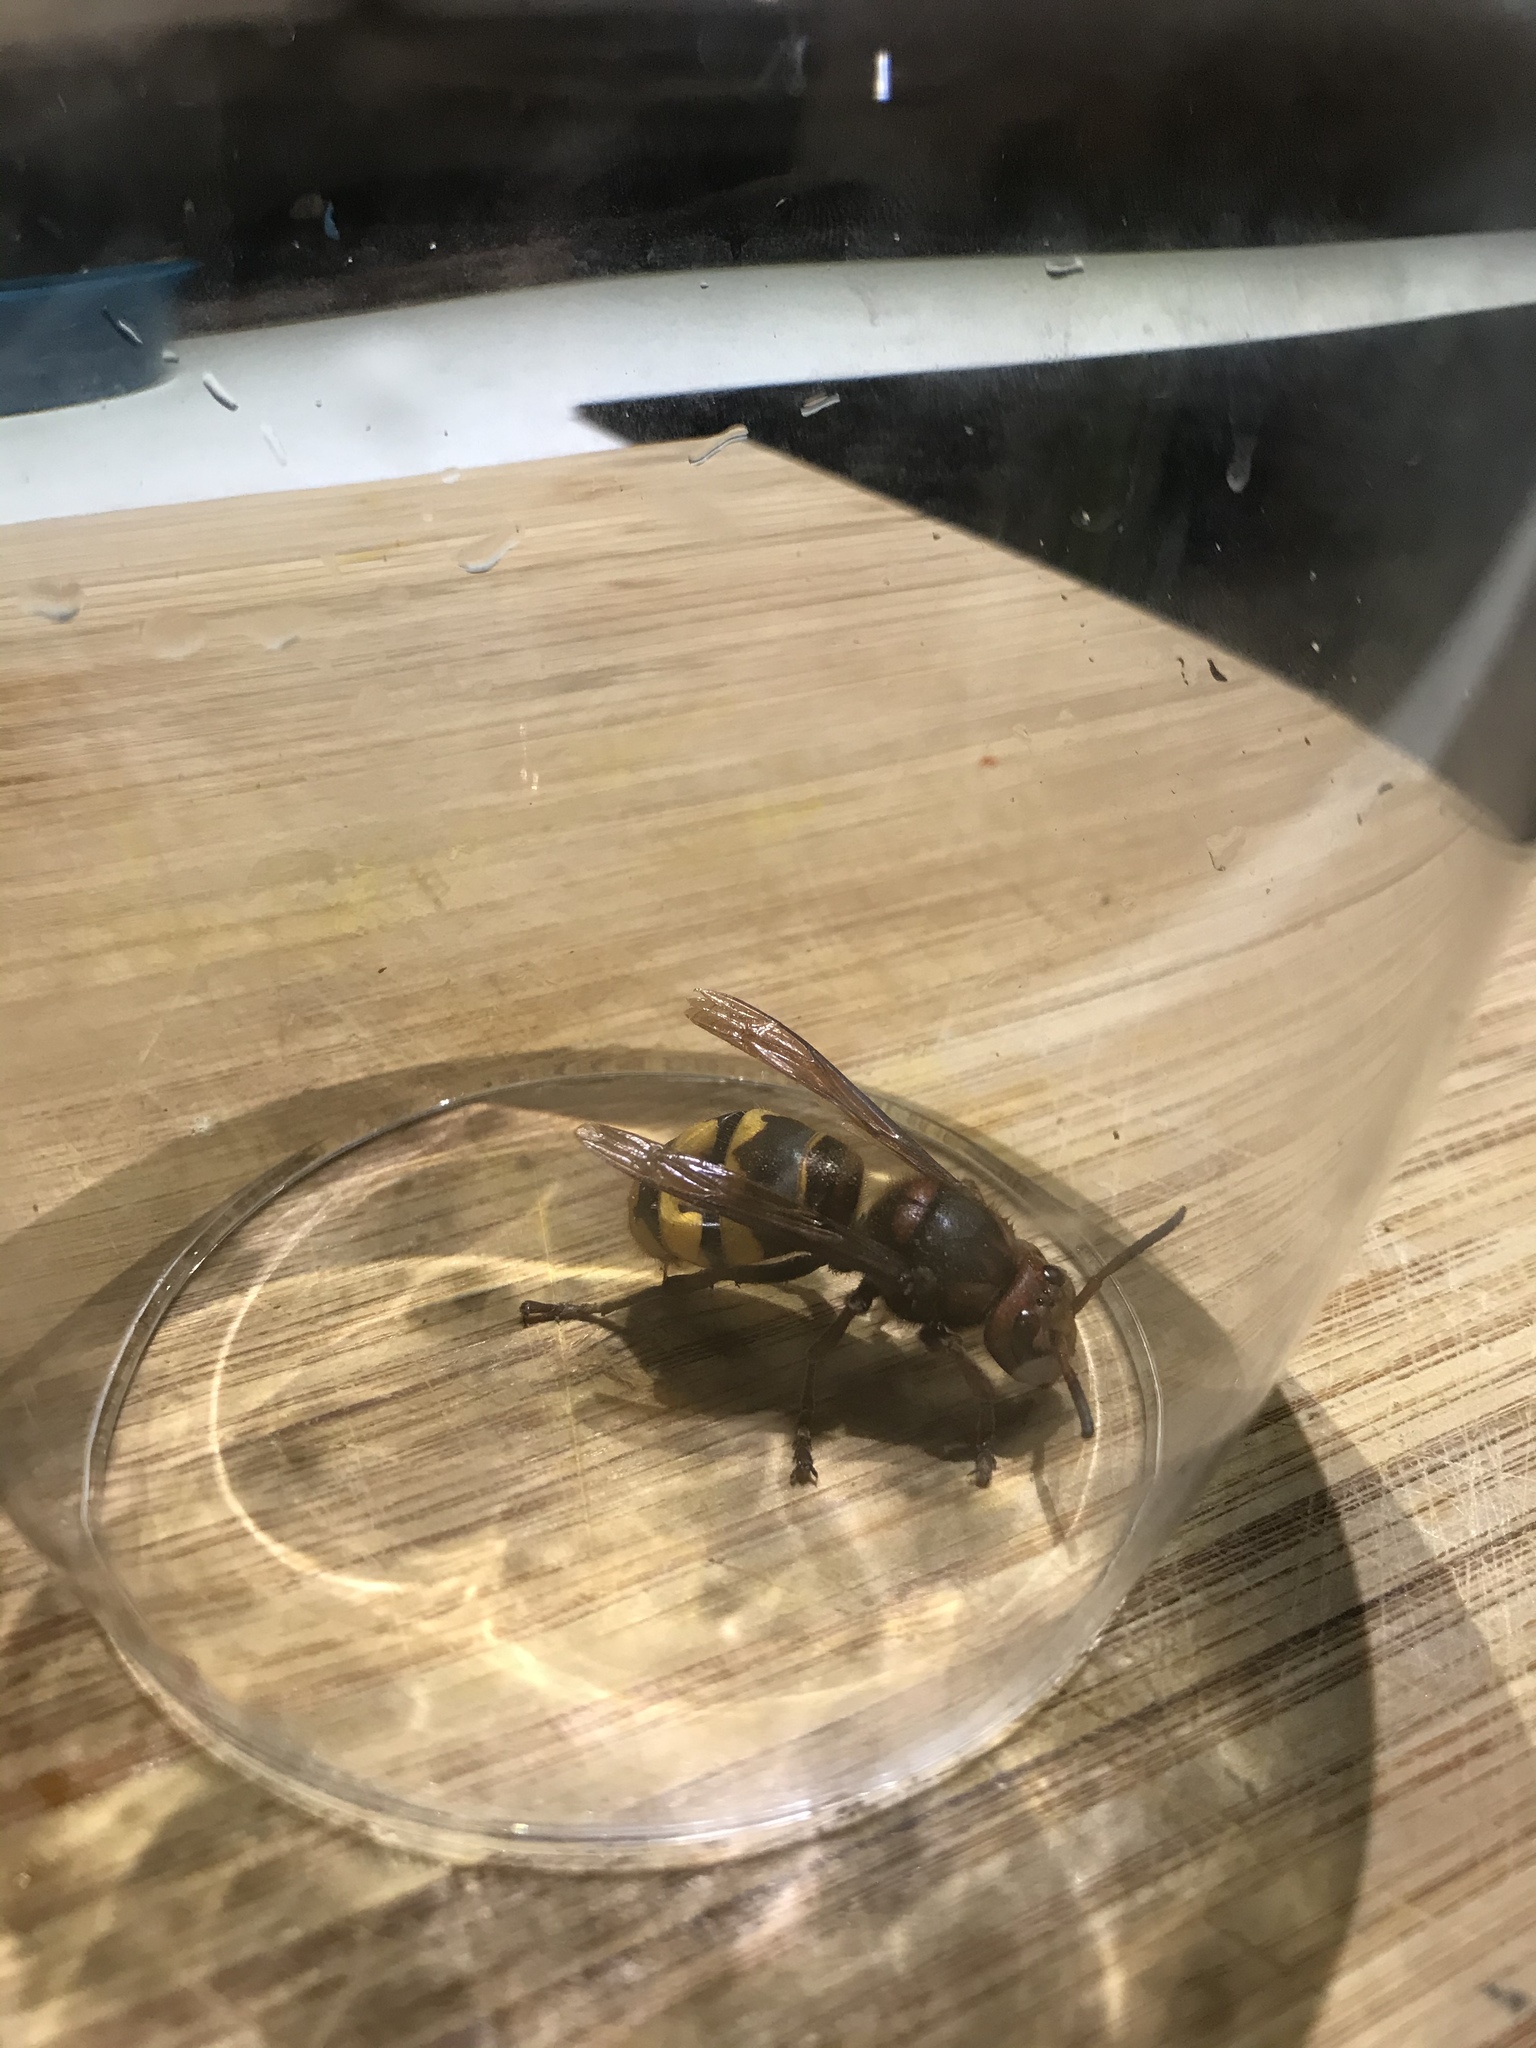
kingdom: Animalia
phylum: Arthropoda
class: Insecta
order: Hymenoptera
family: Vespidae
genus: Vespa
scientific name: Vespa crabro
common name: Hornet
